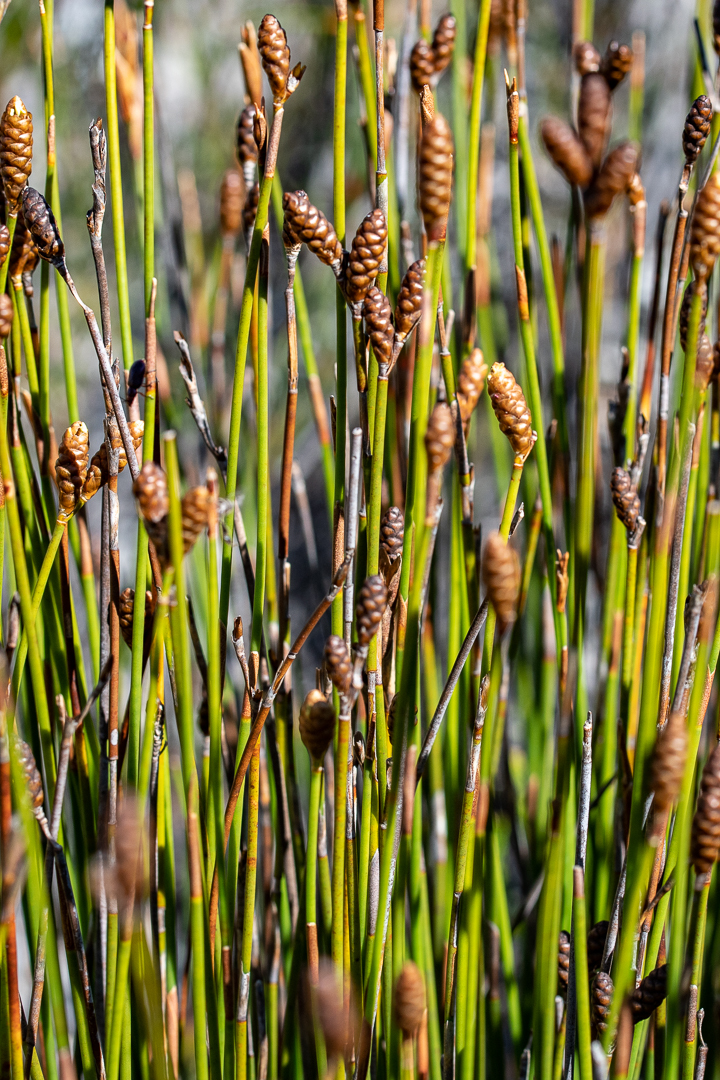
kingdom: Plantae
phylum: Tracheophyta
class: Liliopsida
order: Poales
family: Restionaceae
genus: Nevillea
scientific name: Nevillea obtusissimus
